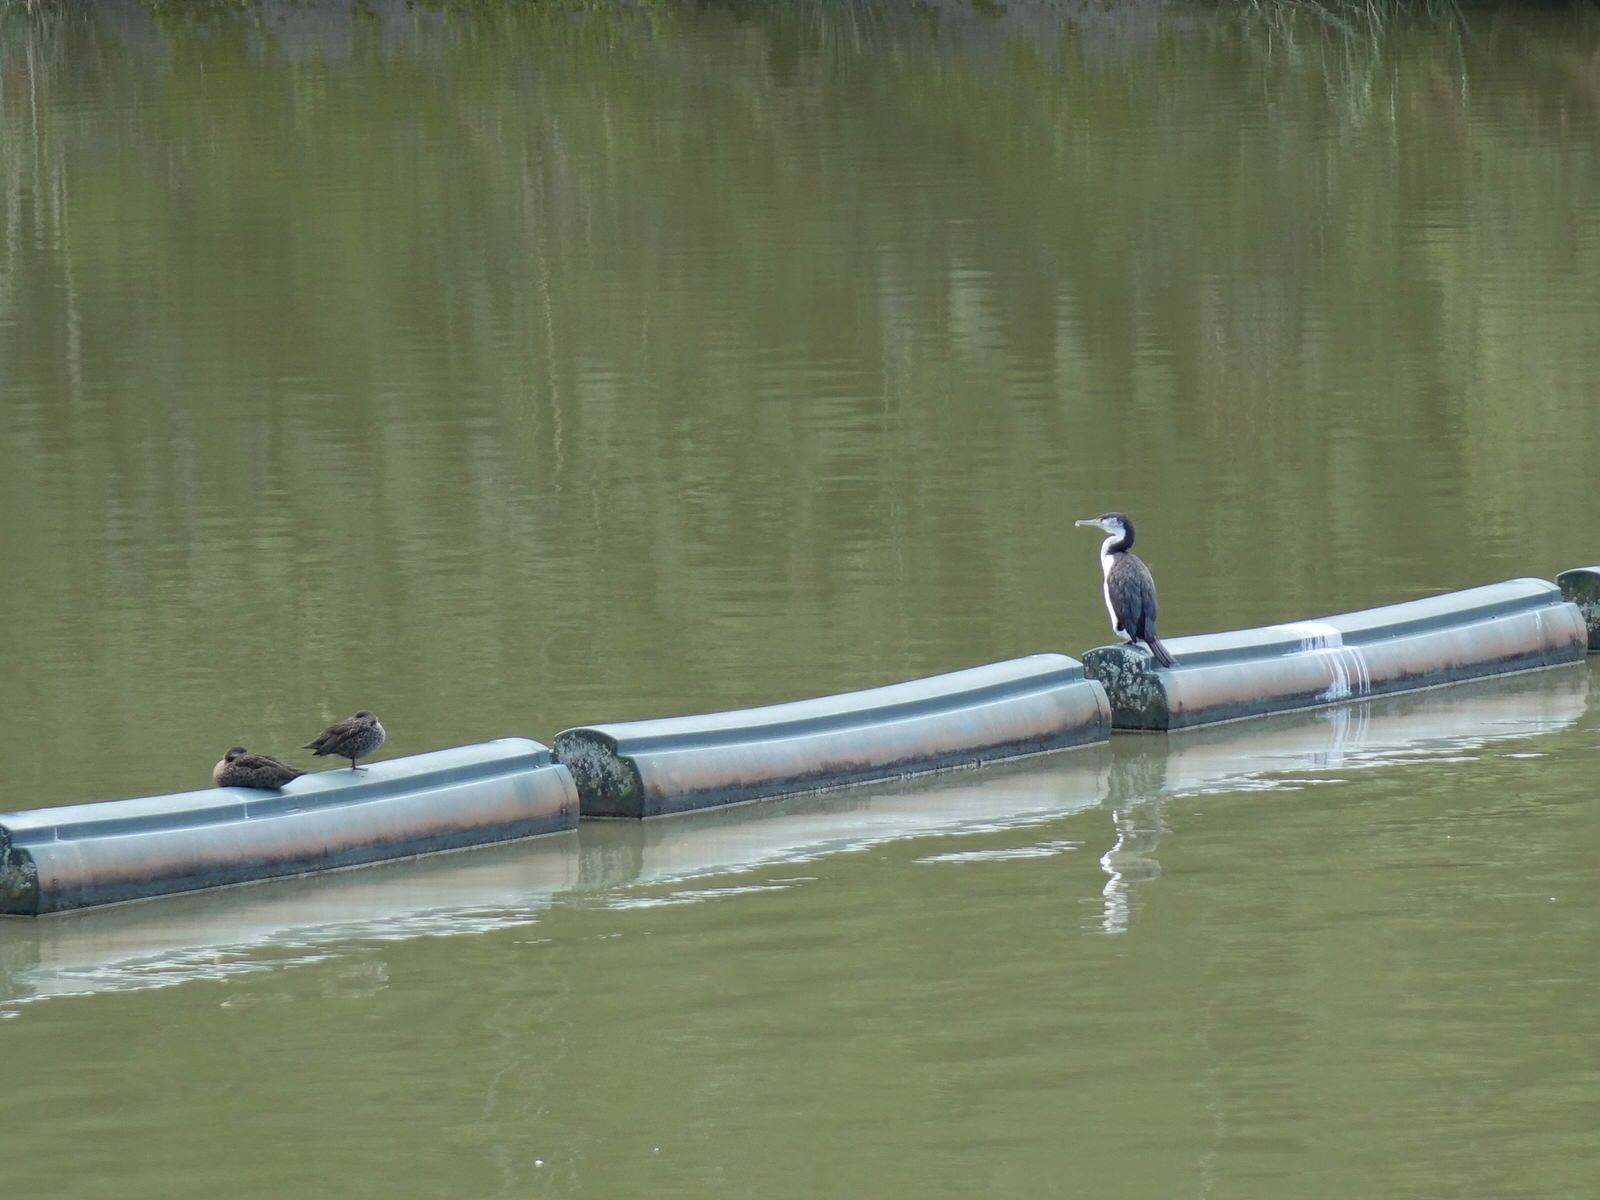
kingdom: Animalia
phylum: Chordata
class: Aves
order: Suliformes
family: Phalacrocoracidae
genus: Phalacrocorax
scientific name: Phalacrocorax varius
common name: Pied cormorant
